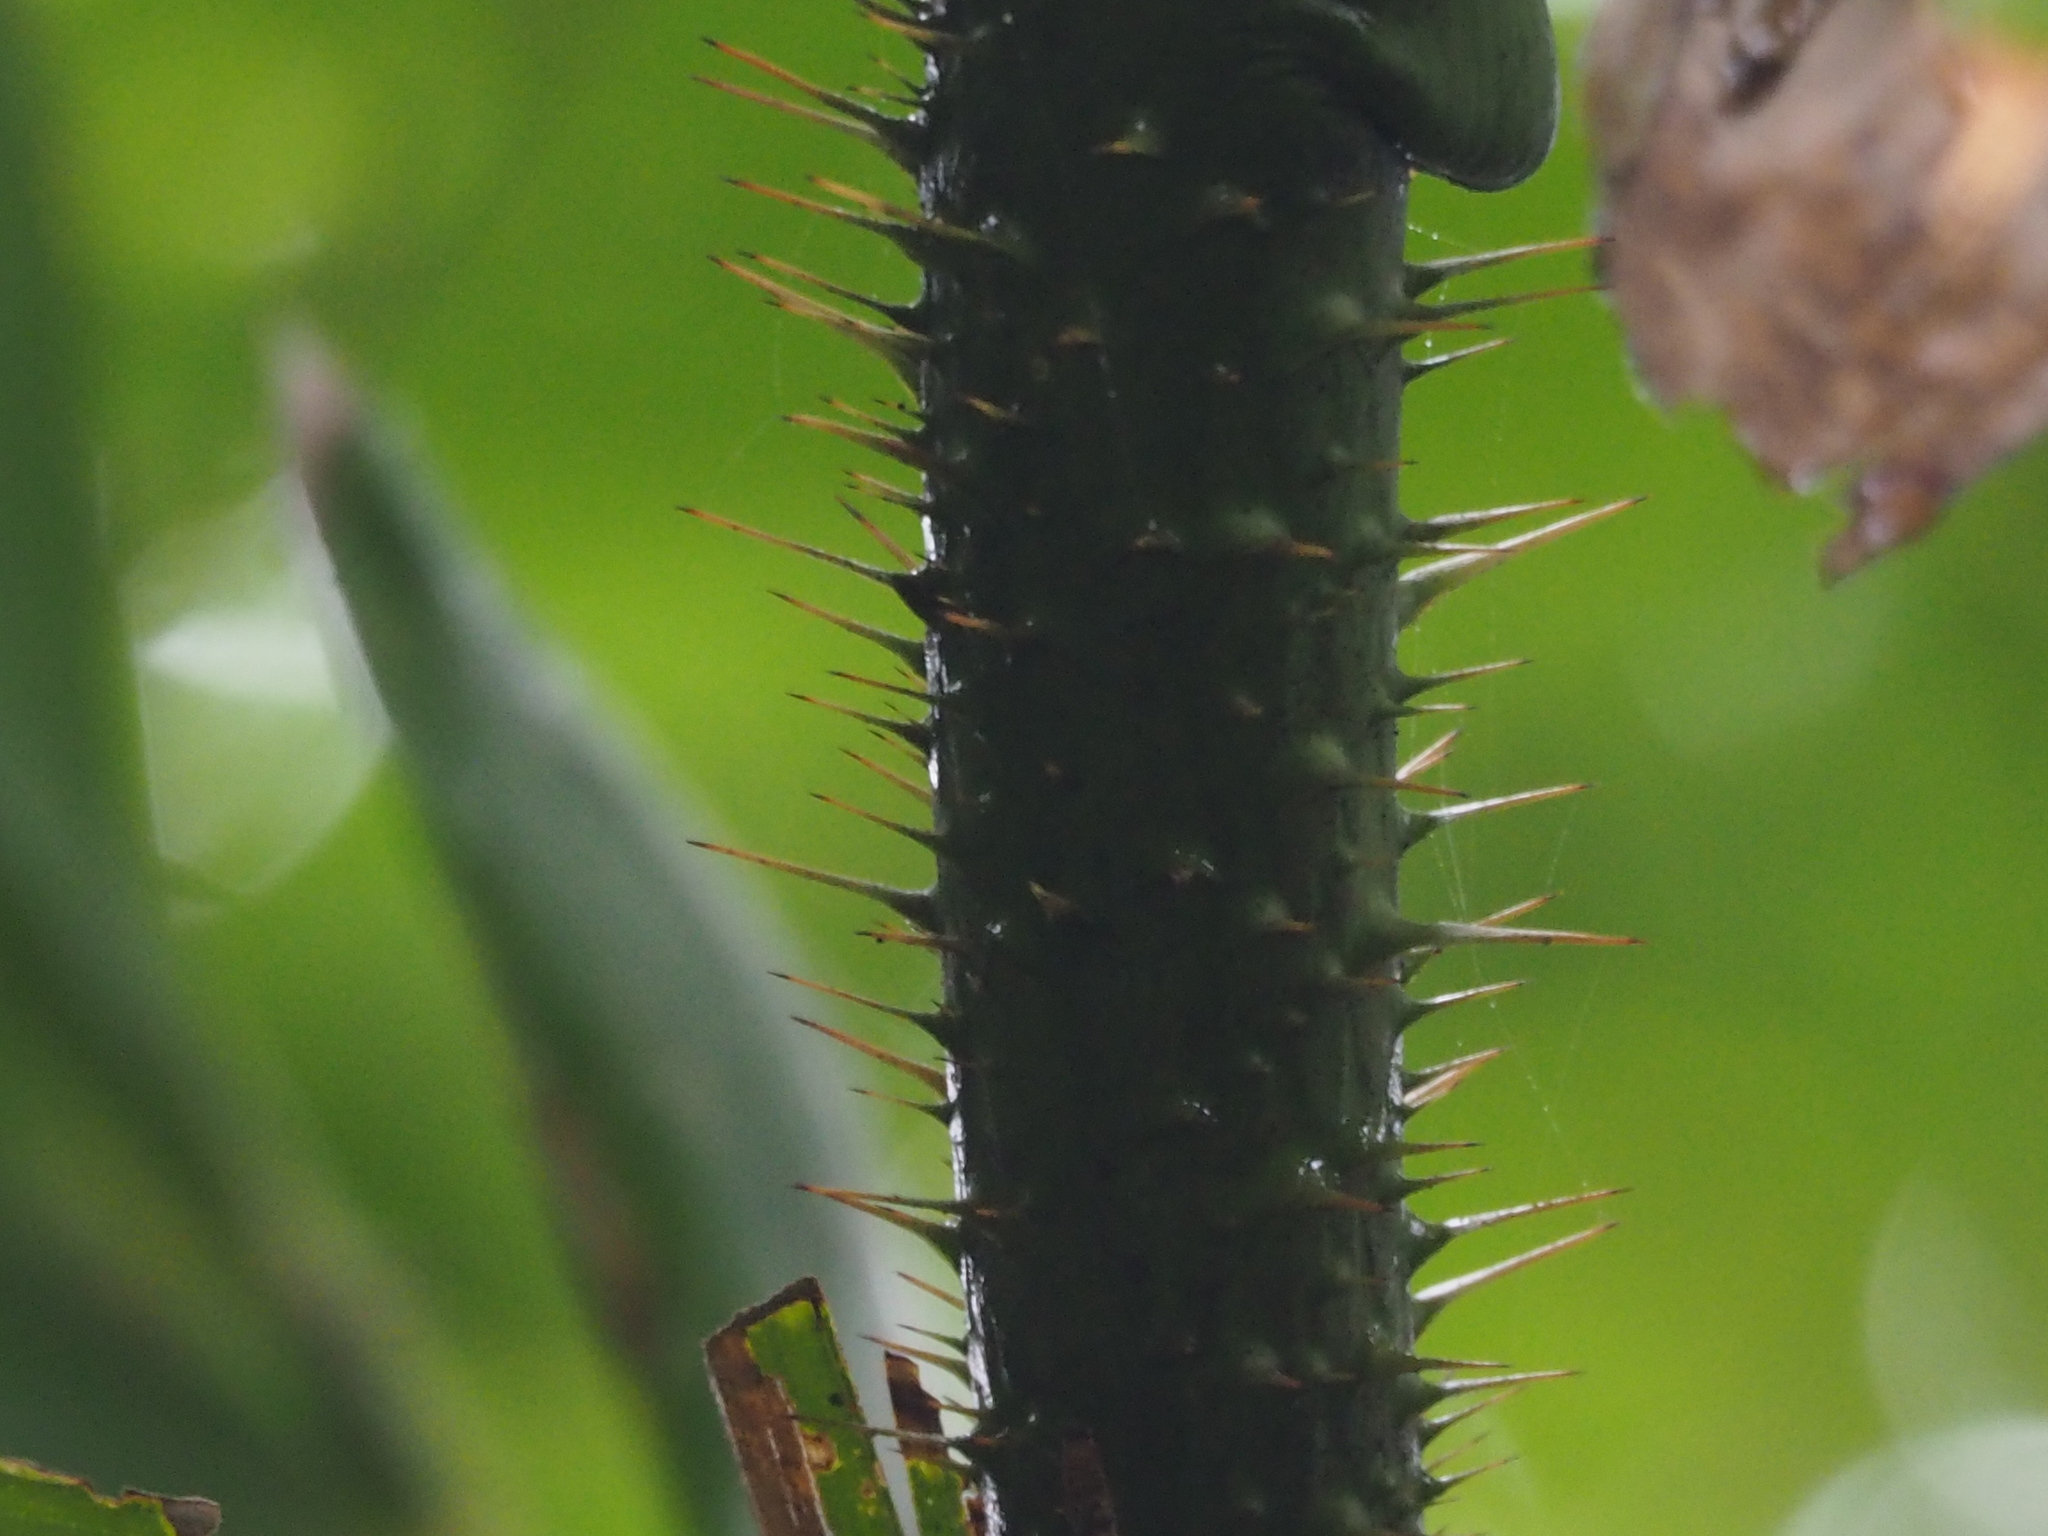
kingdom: Plantae
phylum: Tracheophyta
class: Liliopsida
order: Arecales
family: Arecaceae
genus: Calamus
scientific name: Calamus formosanus
